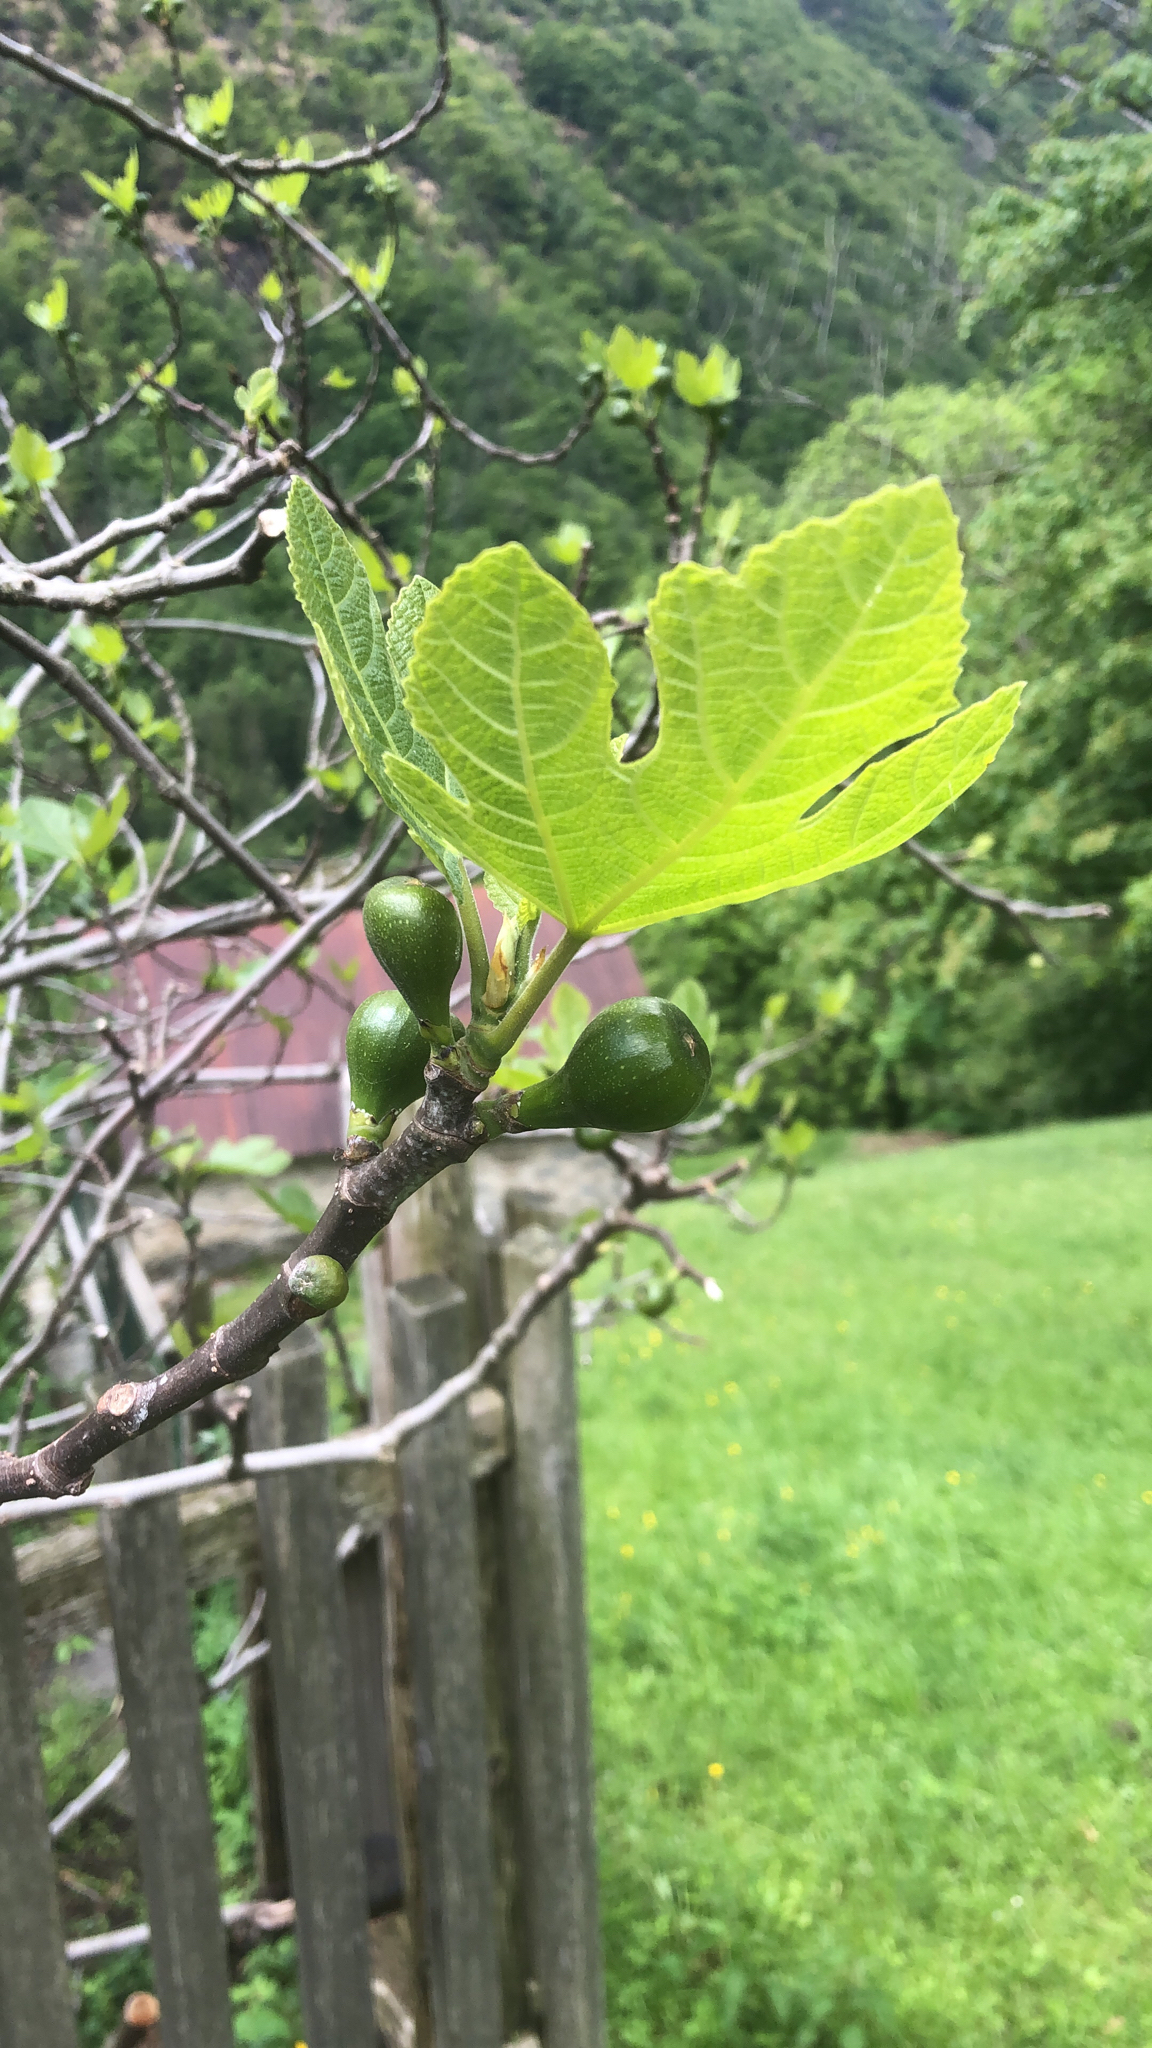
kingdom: Plantae
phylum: Tracheophyta
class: Magnoliopsida
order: Rosales
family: Moraceae
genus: Ficus
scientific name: Ficus carica
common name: Fig
